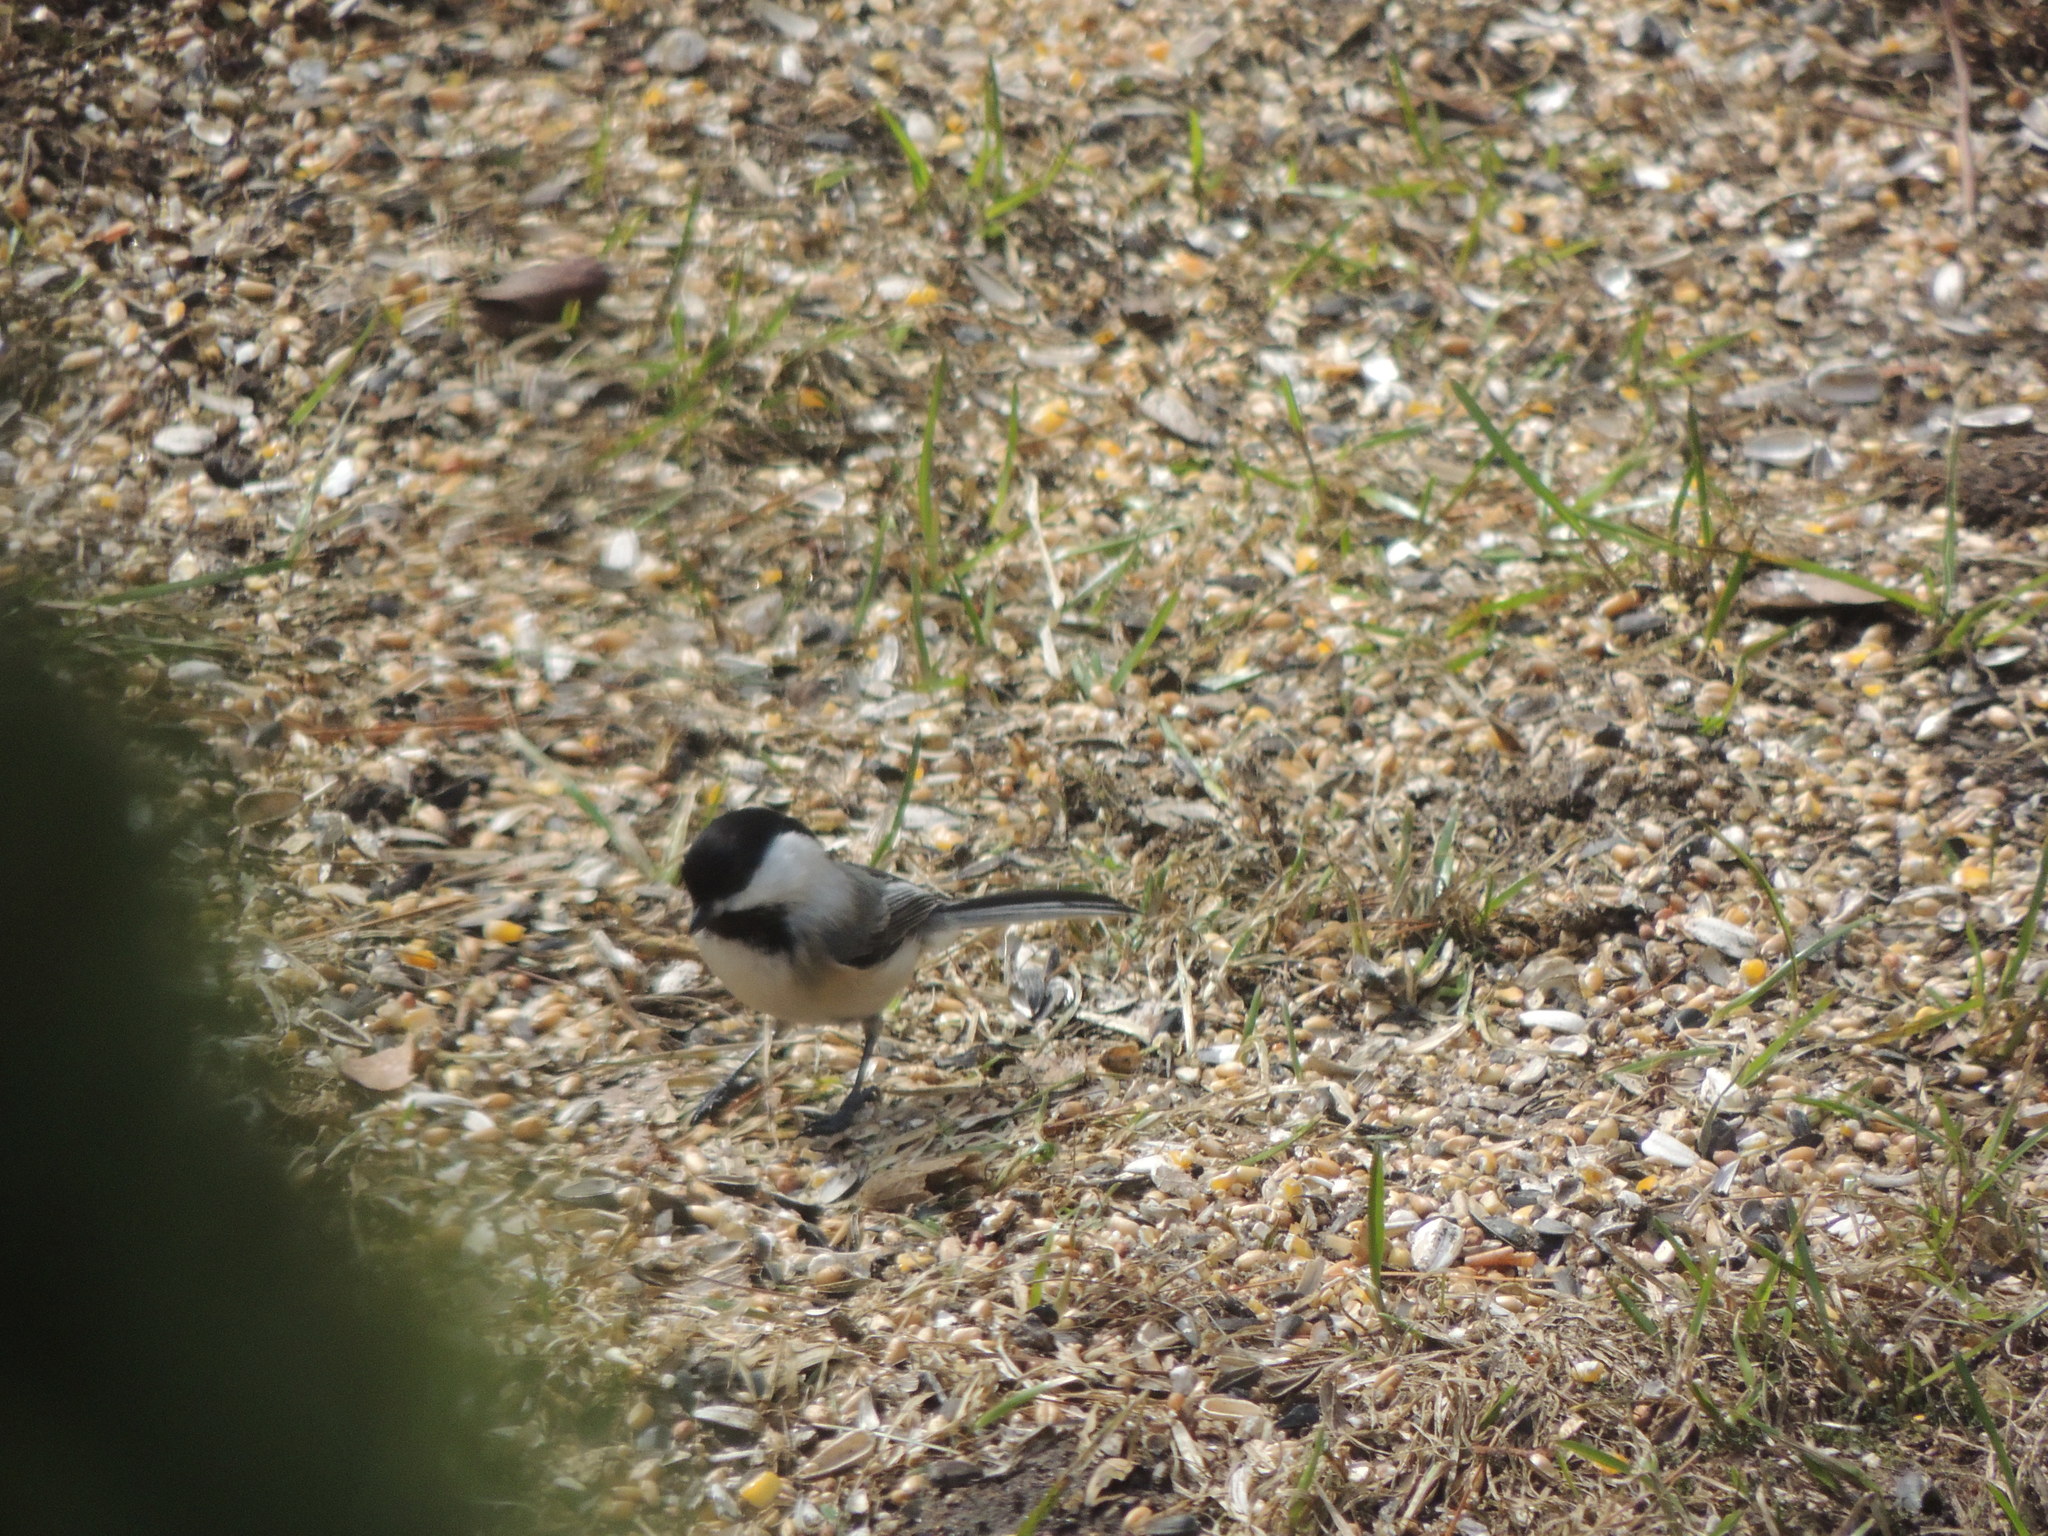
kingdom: Animalia
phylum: Chordata
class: Aves
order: Passeriformes
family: Paridae
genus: Poecile
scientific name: Poecile atricapillus
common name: Black-capped chickadee
